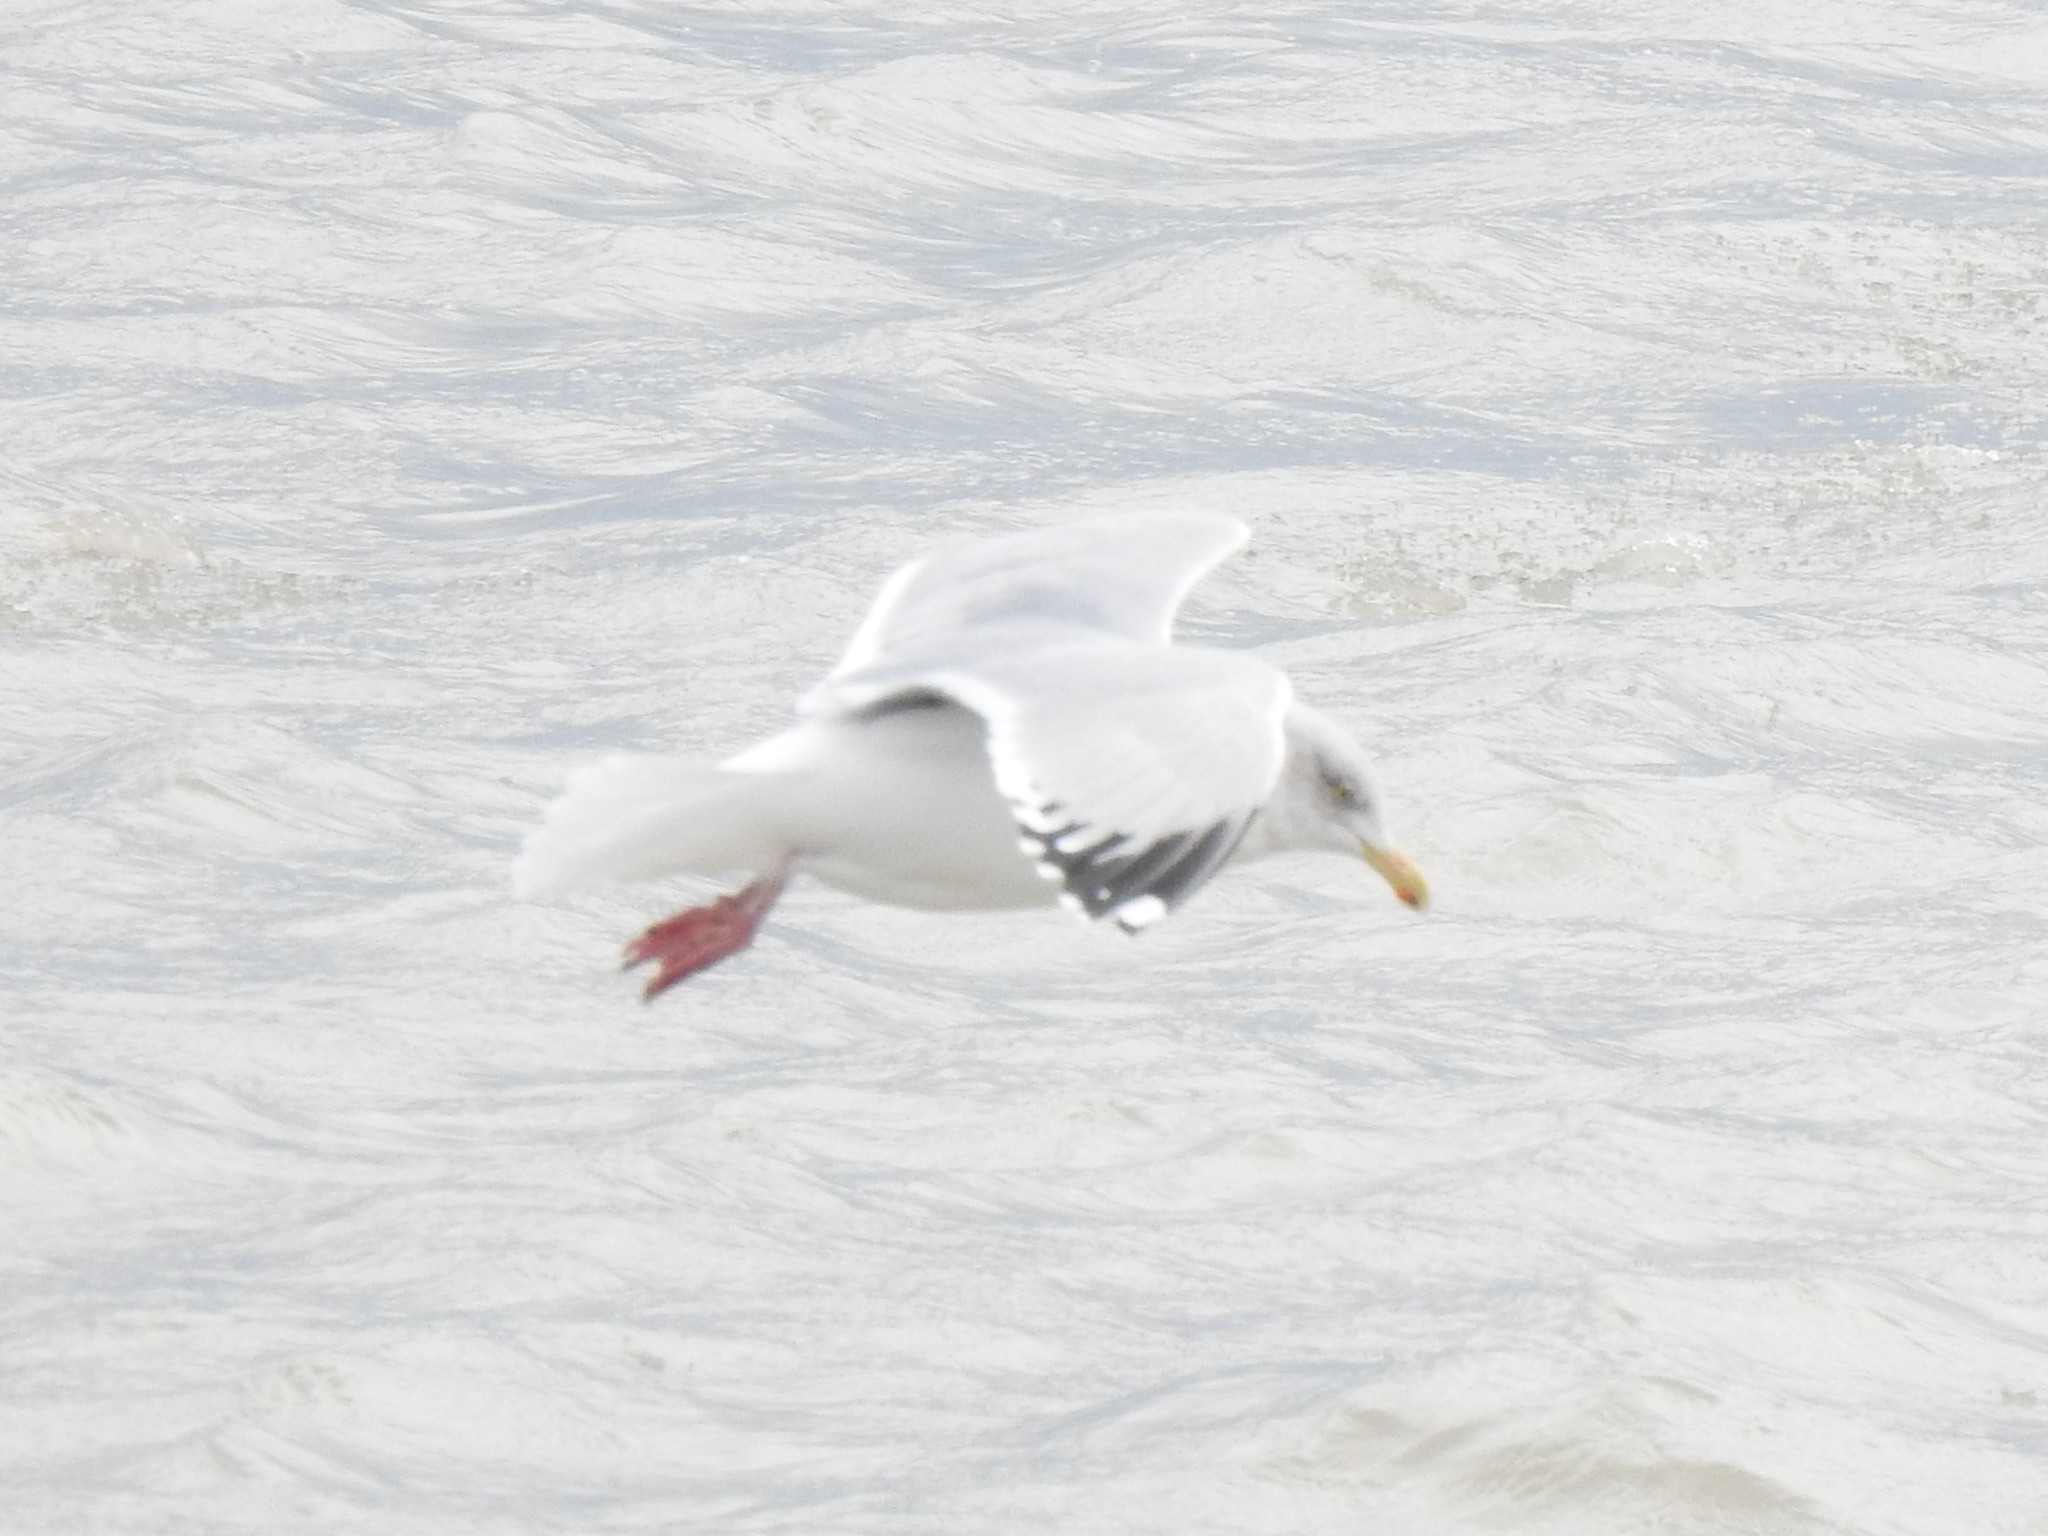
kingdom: Animalia
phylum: Chordata
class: Aves
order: Charadriiformes
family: Laridae
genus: Larus
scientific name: Larus argentatus
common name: Herring gull
